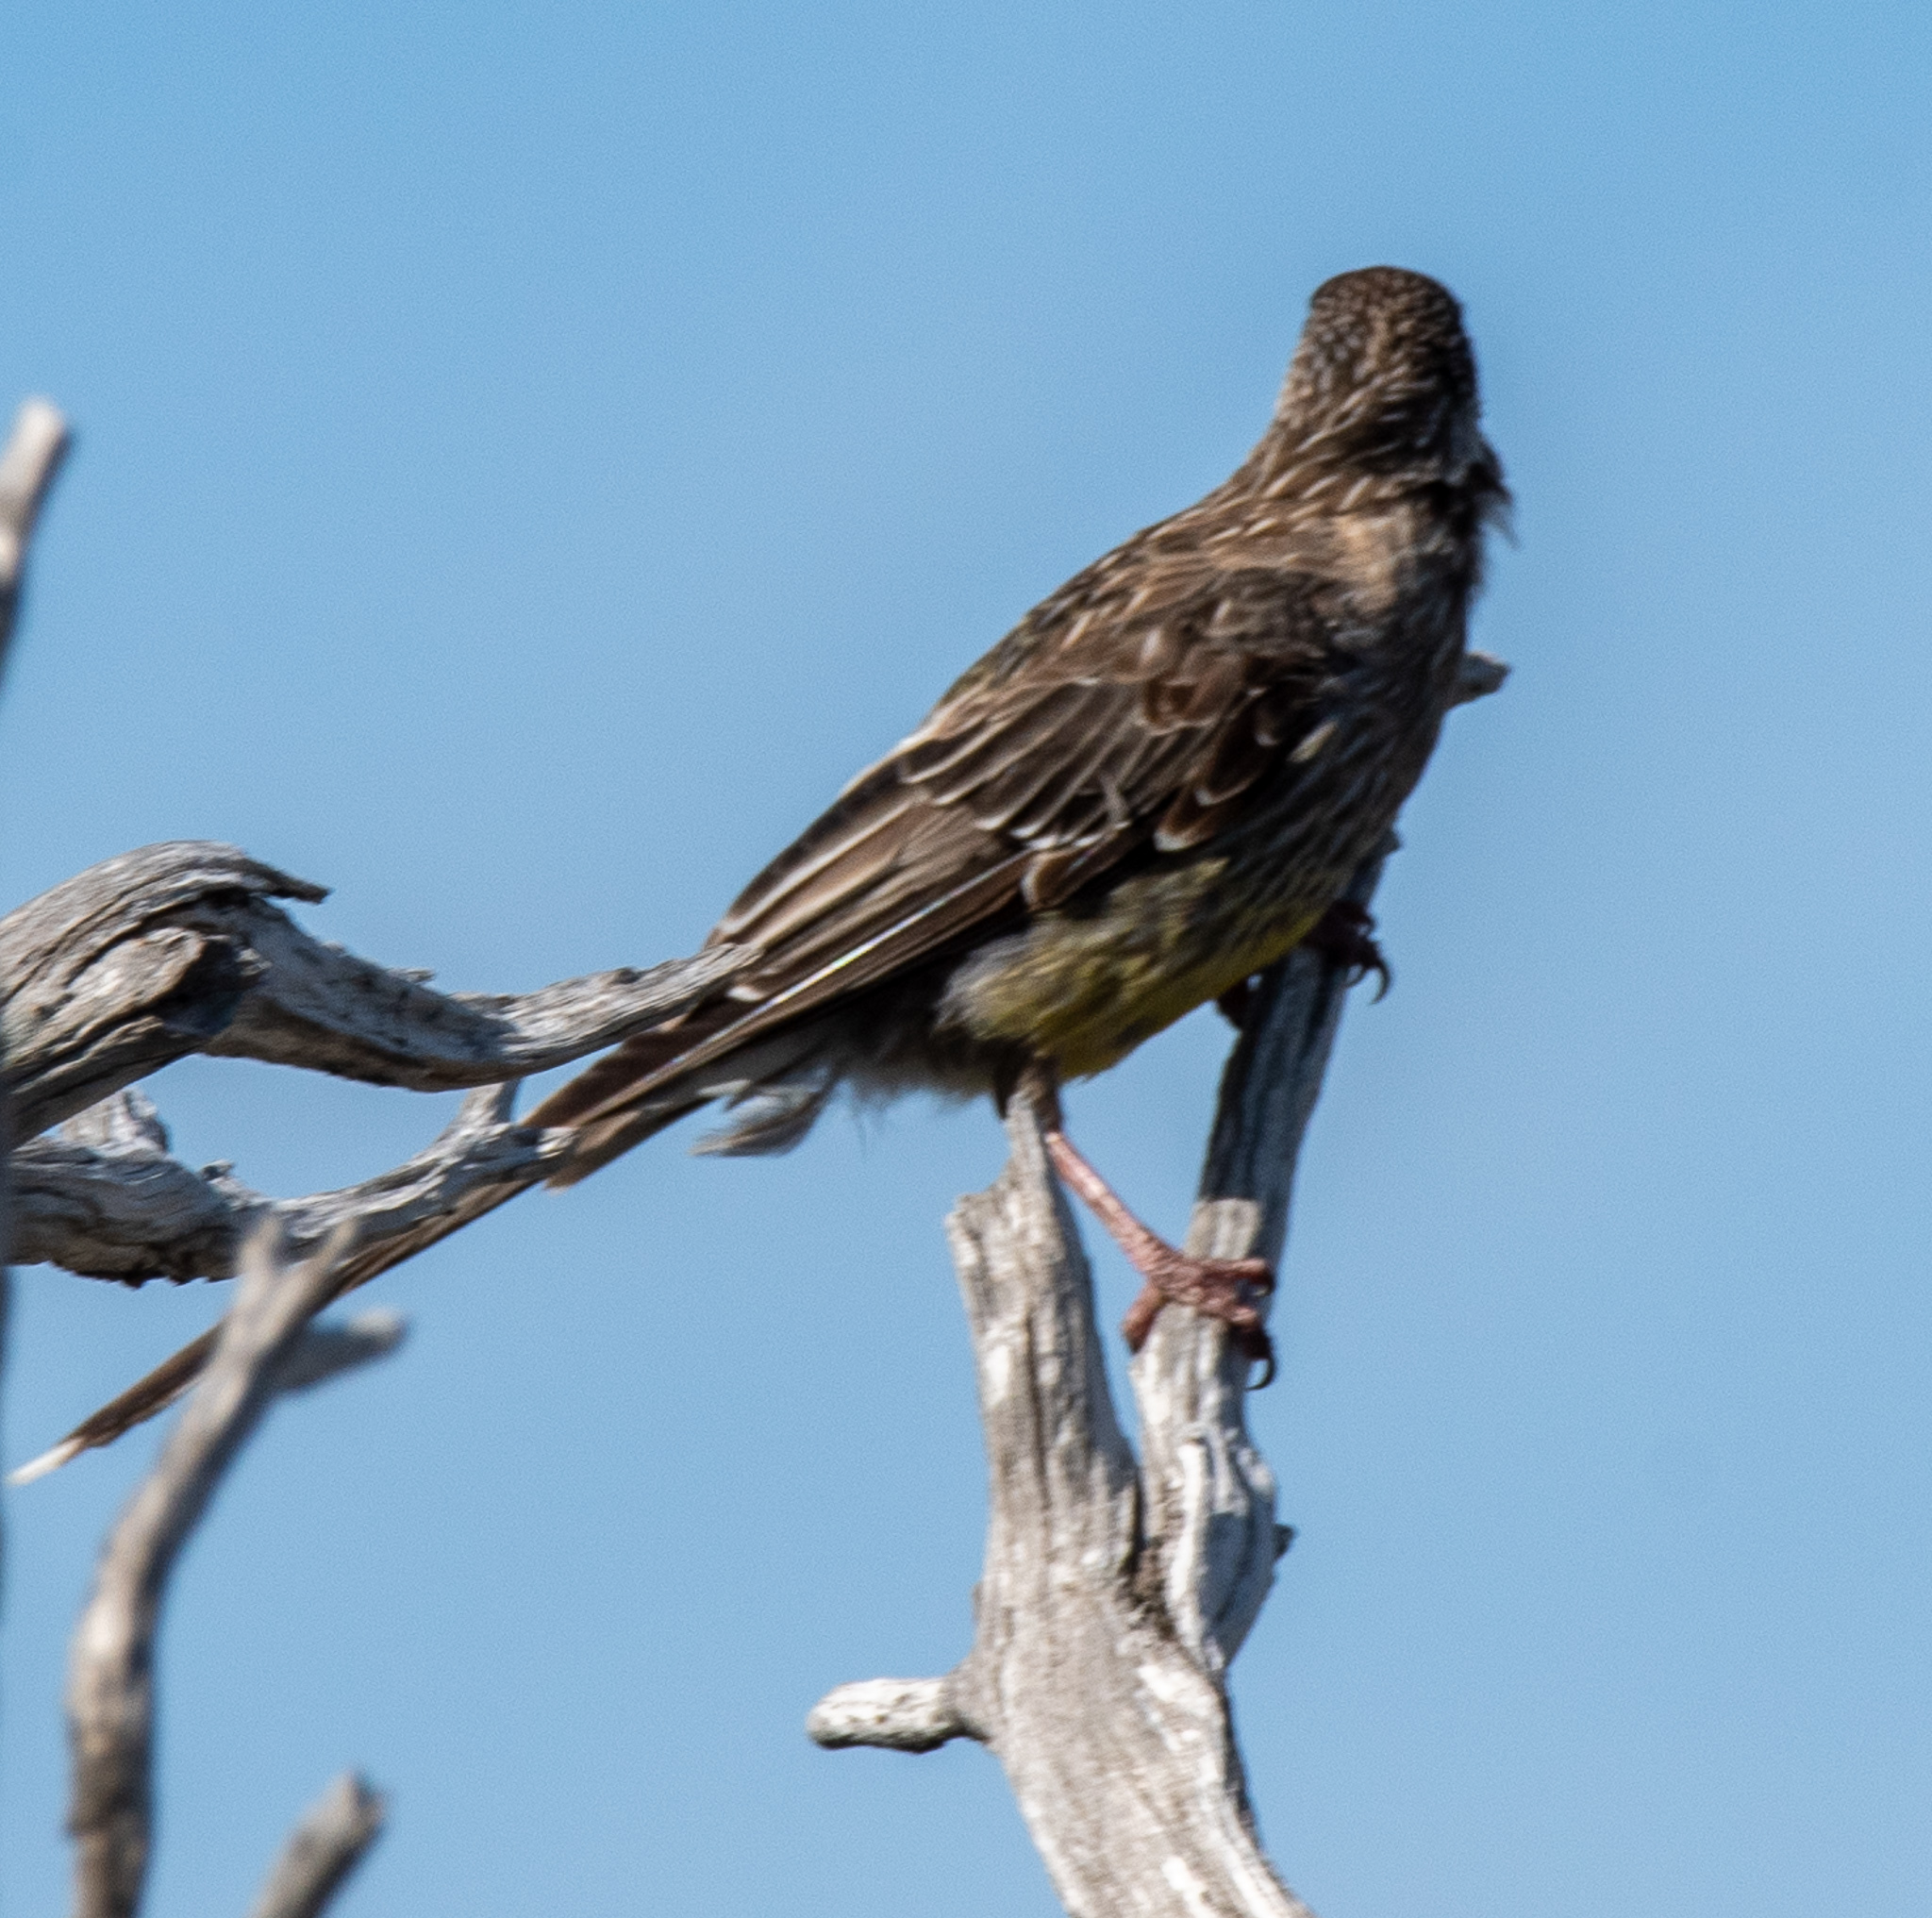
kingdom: Animalia
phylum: Chordata
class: Aves
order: Passeriformes
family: Meliphagidae
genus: Anthochaera
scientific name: Anthochaera carunculata
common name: Red wattlebird
